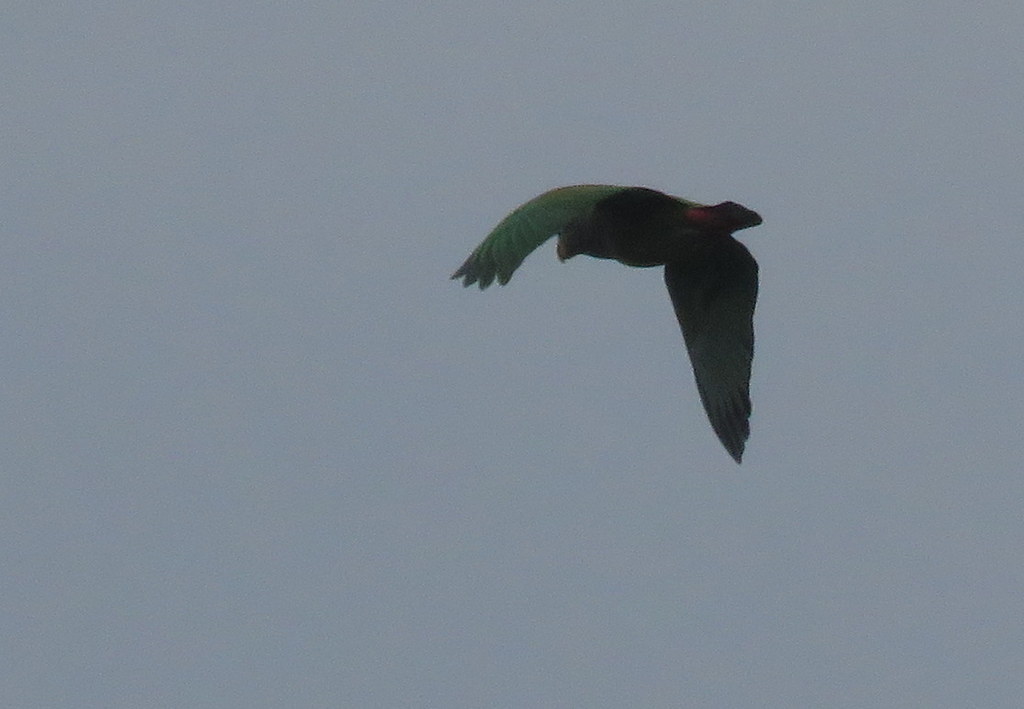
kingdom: Animalia
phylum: Chordata
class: Aves
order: Psittaciformes
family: Psittacidae
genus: Pionus
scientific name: Pionus maximiliani
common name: Scaly-headed parrot
